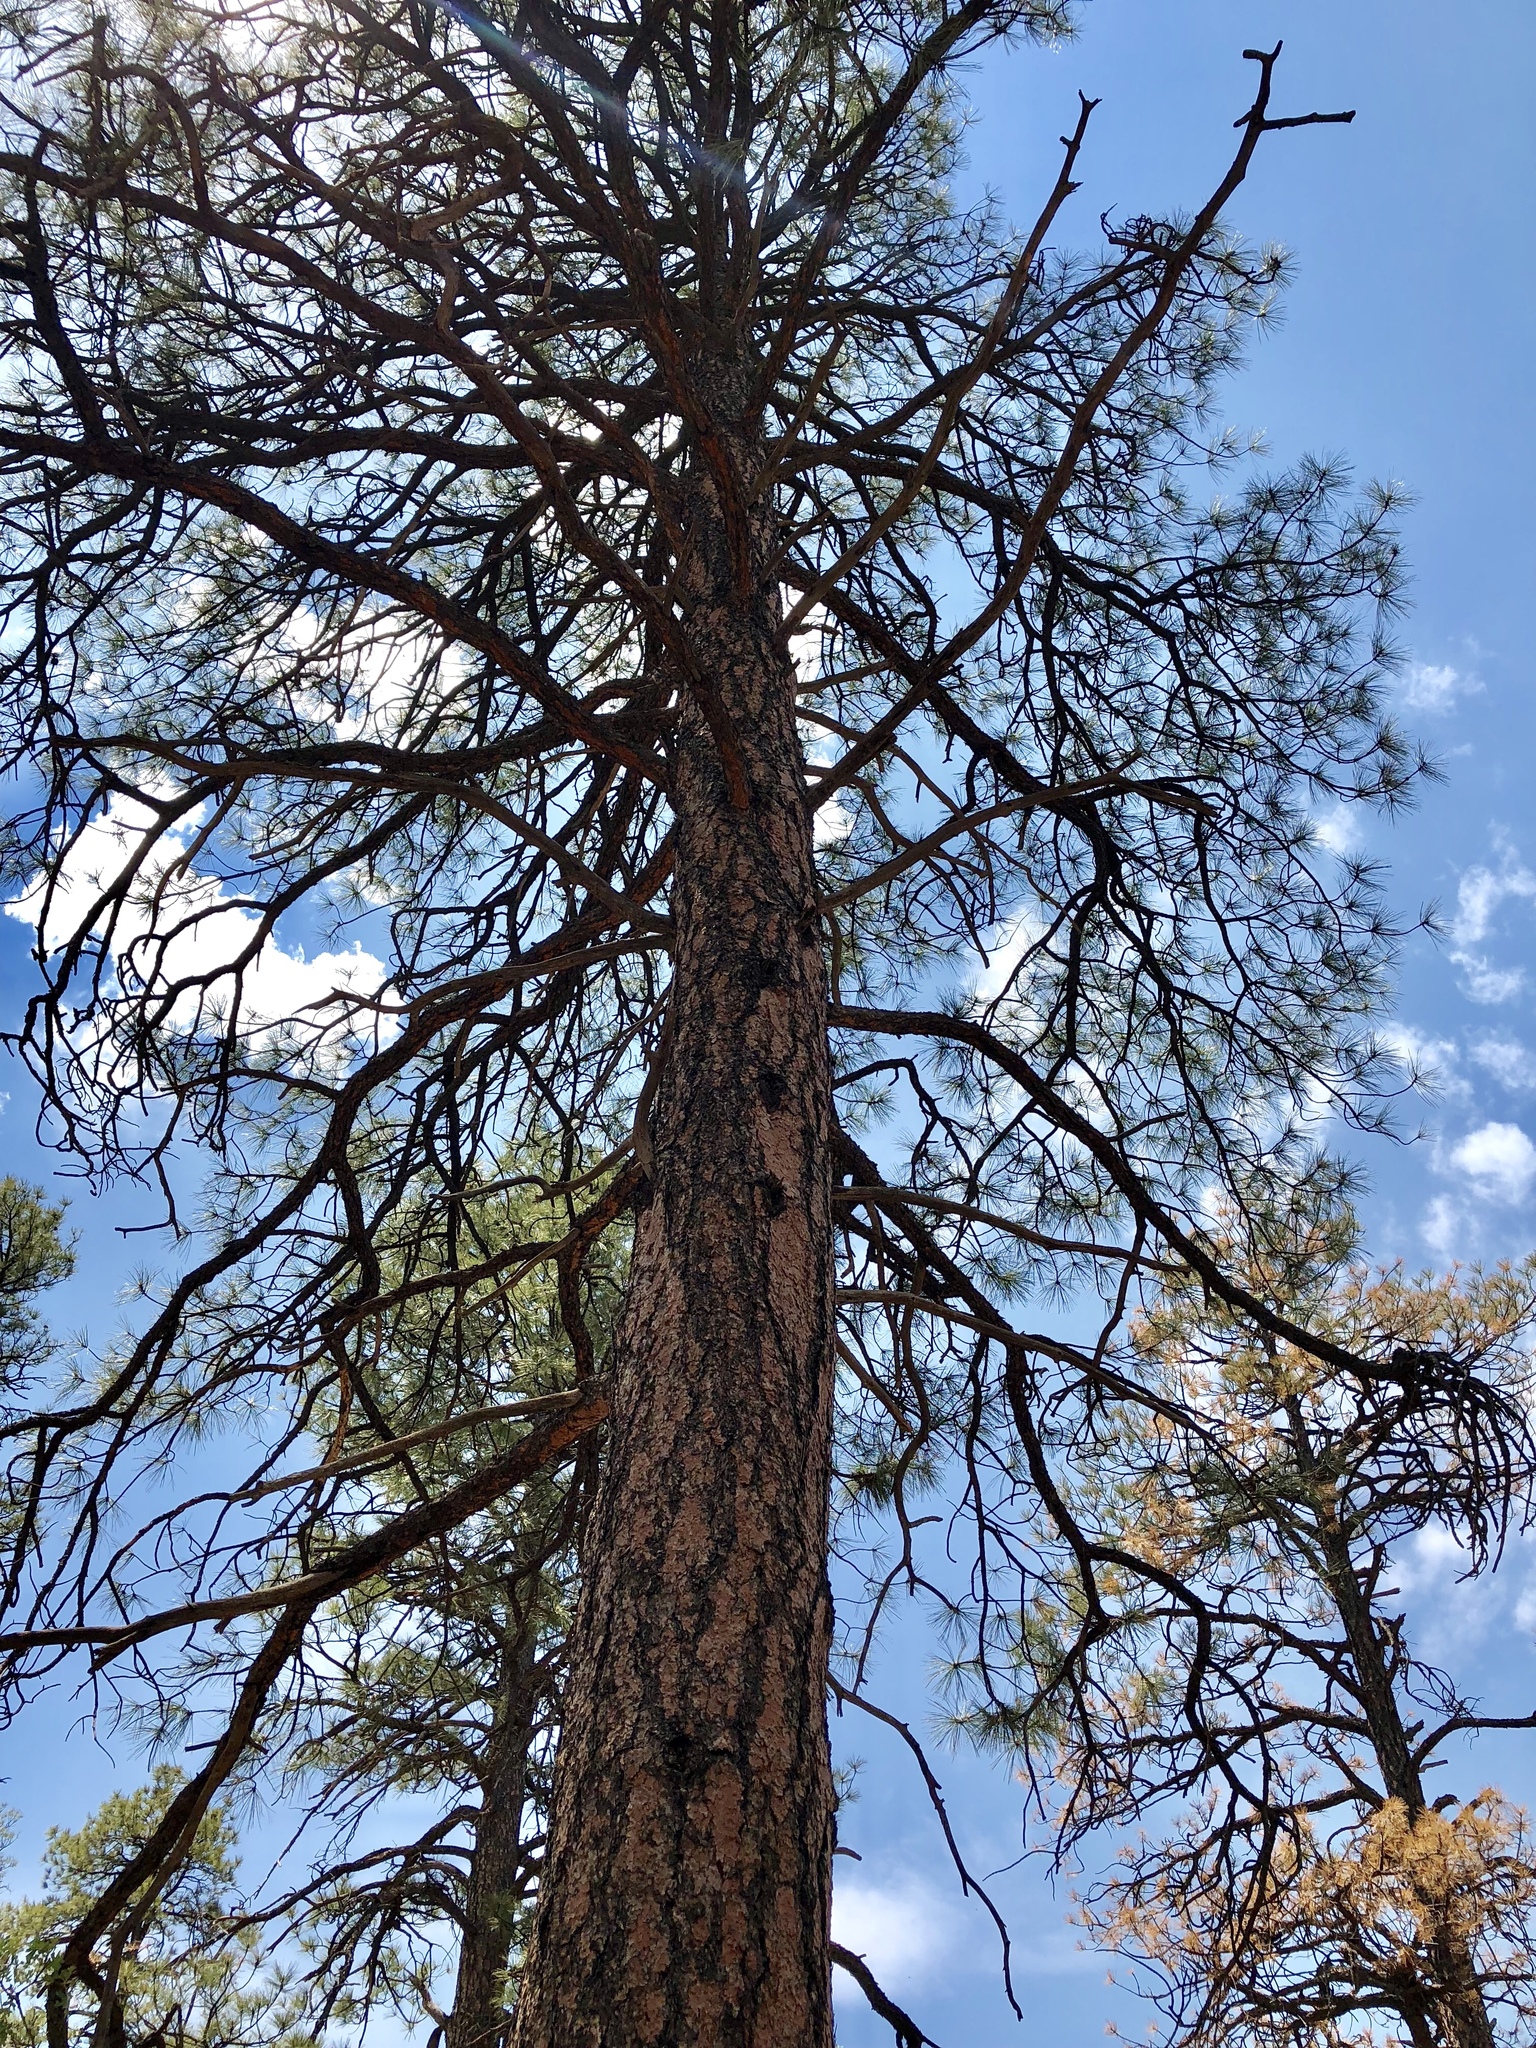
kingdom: Plantae
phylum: Tracheophyta
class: Pinopsida
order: Pinales
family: Pinaceae
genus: Pinus
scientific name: Pinus ponderosa
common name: Western yellow-pine
